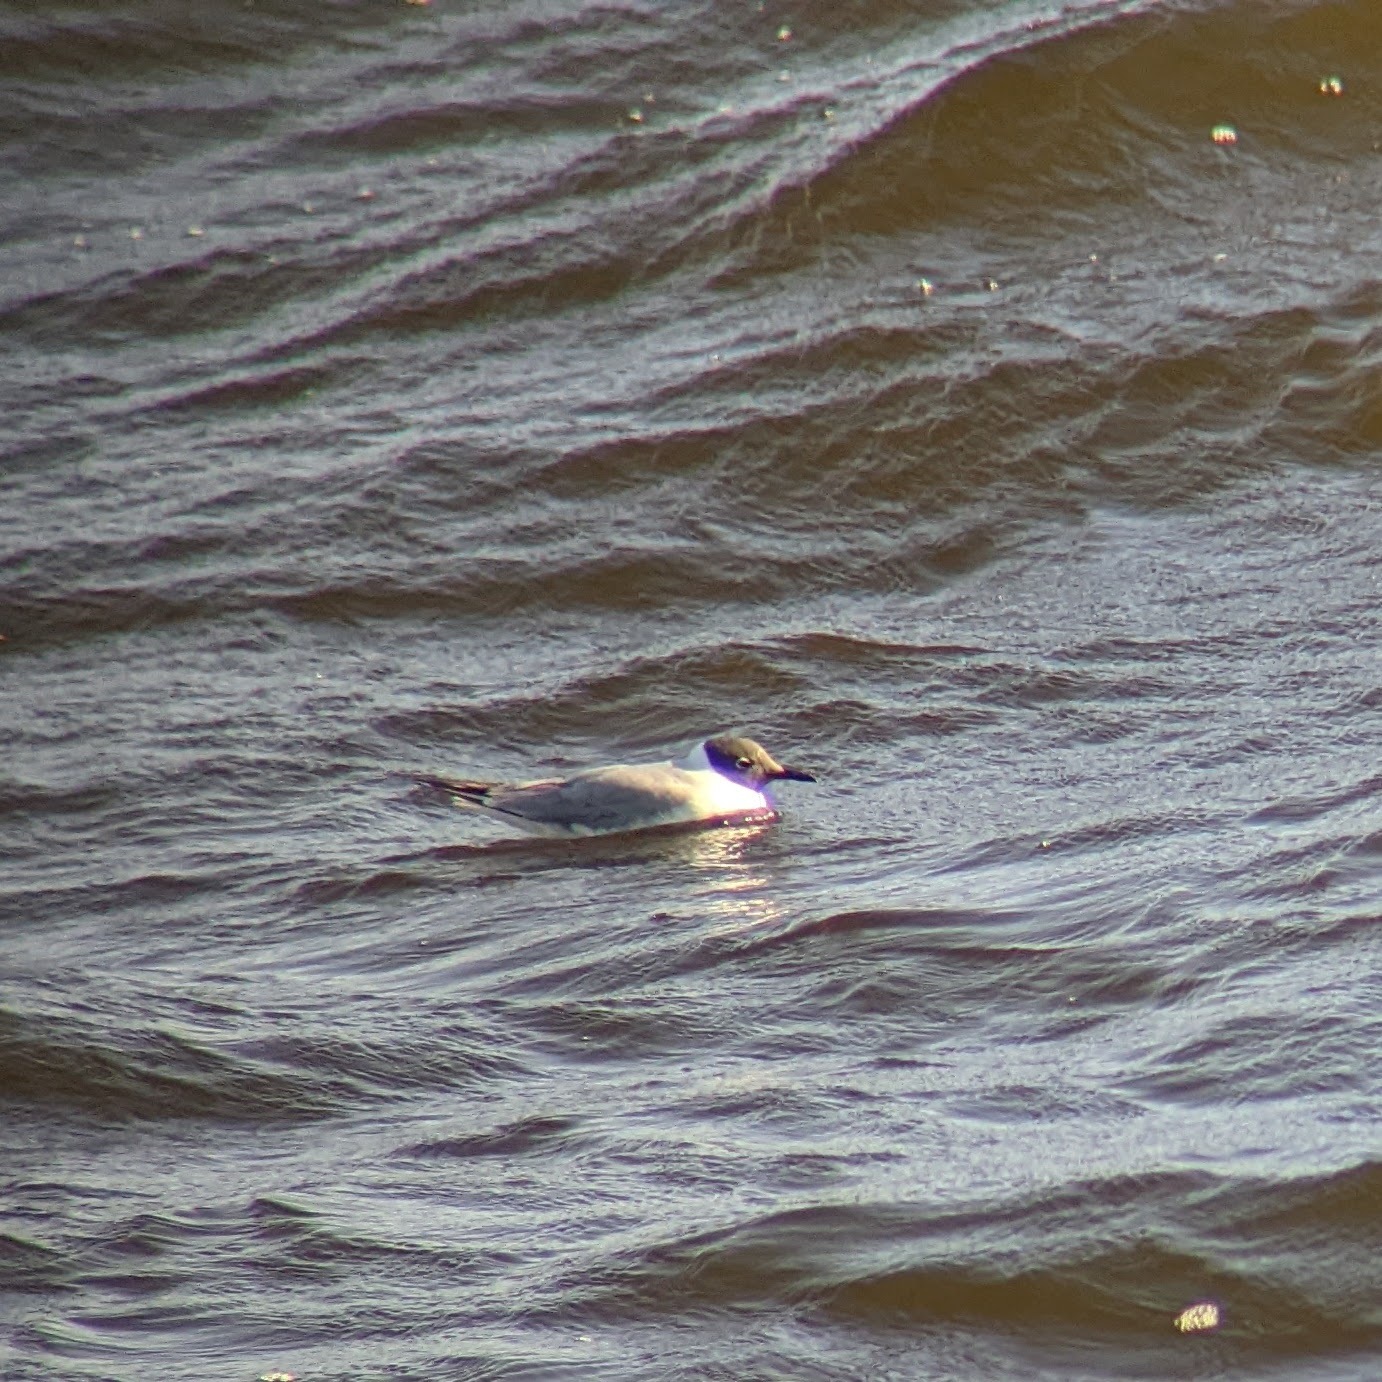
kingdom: Animalia
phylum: Chordata
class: Aves
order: Charadriiformes
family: Laridae
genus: Chroicocephalus
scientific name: Chroicocephalus philadelphia
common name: Bonaparte's gull
